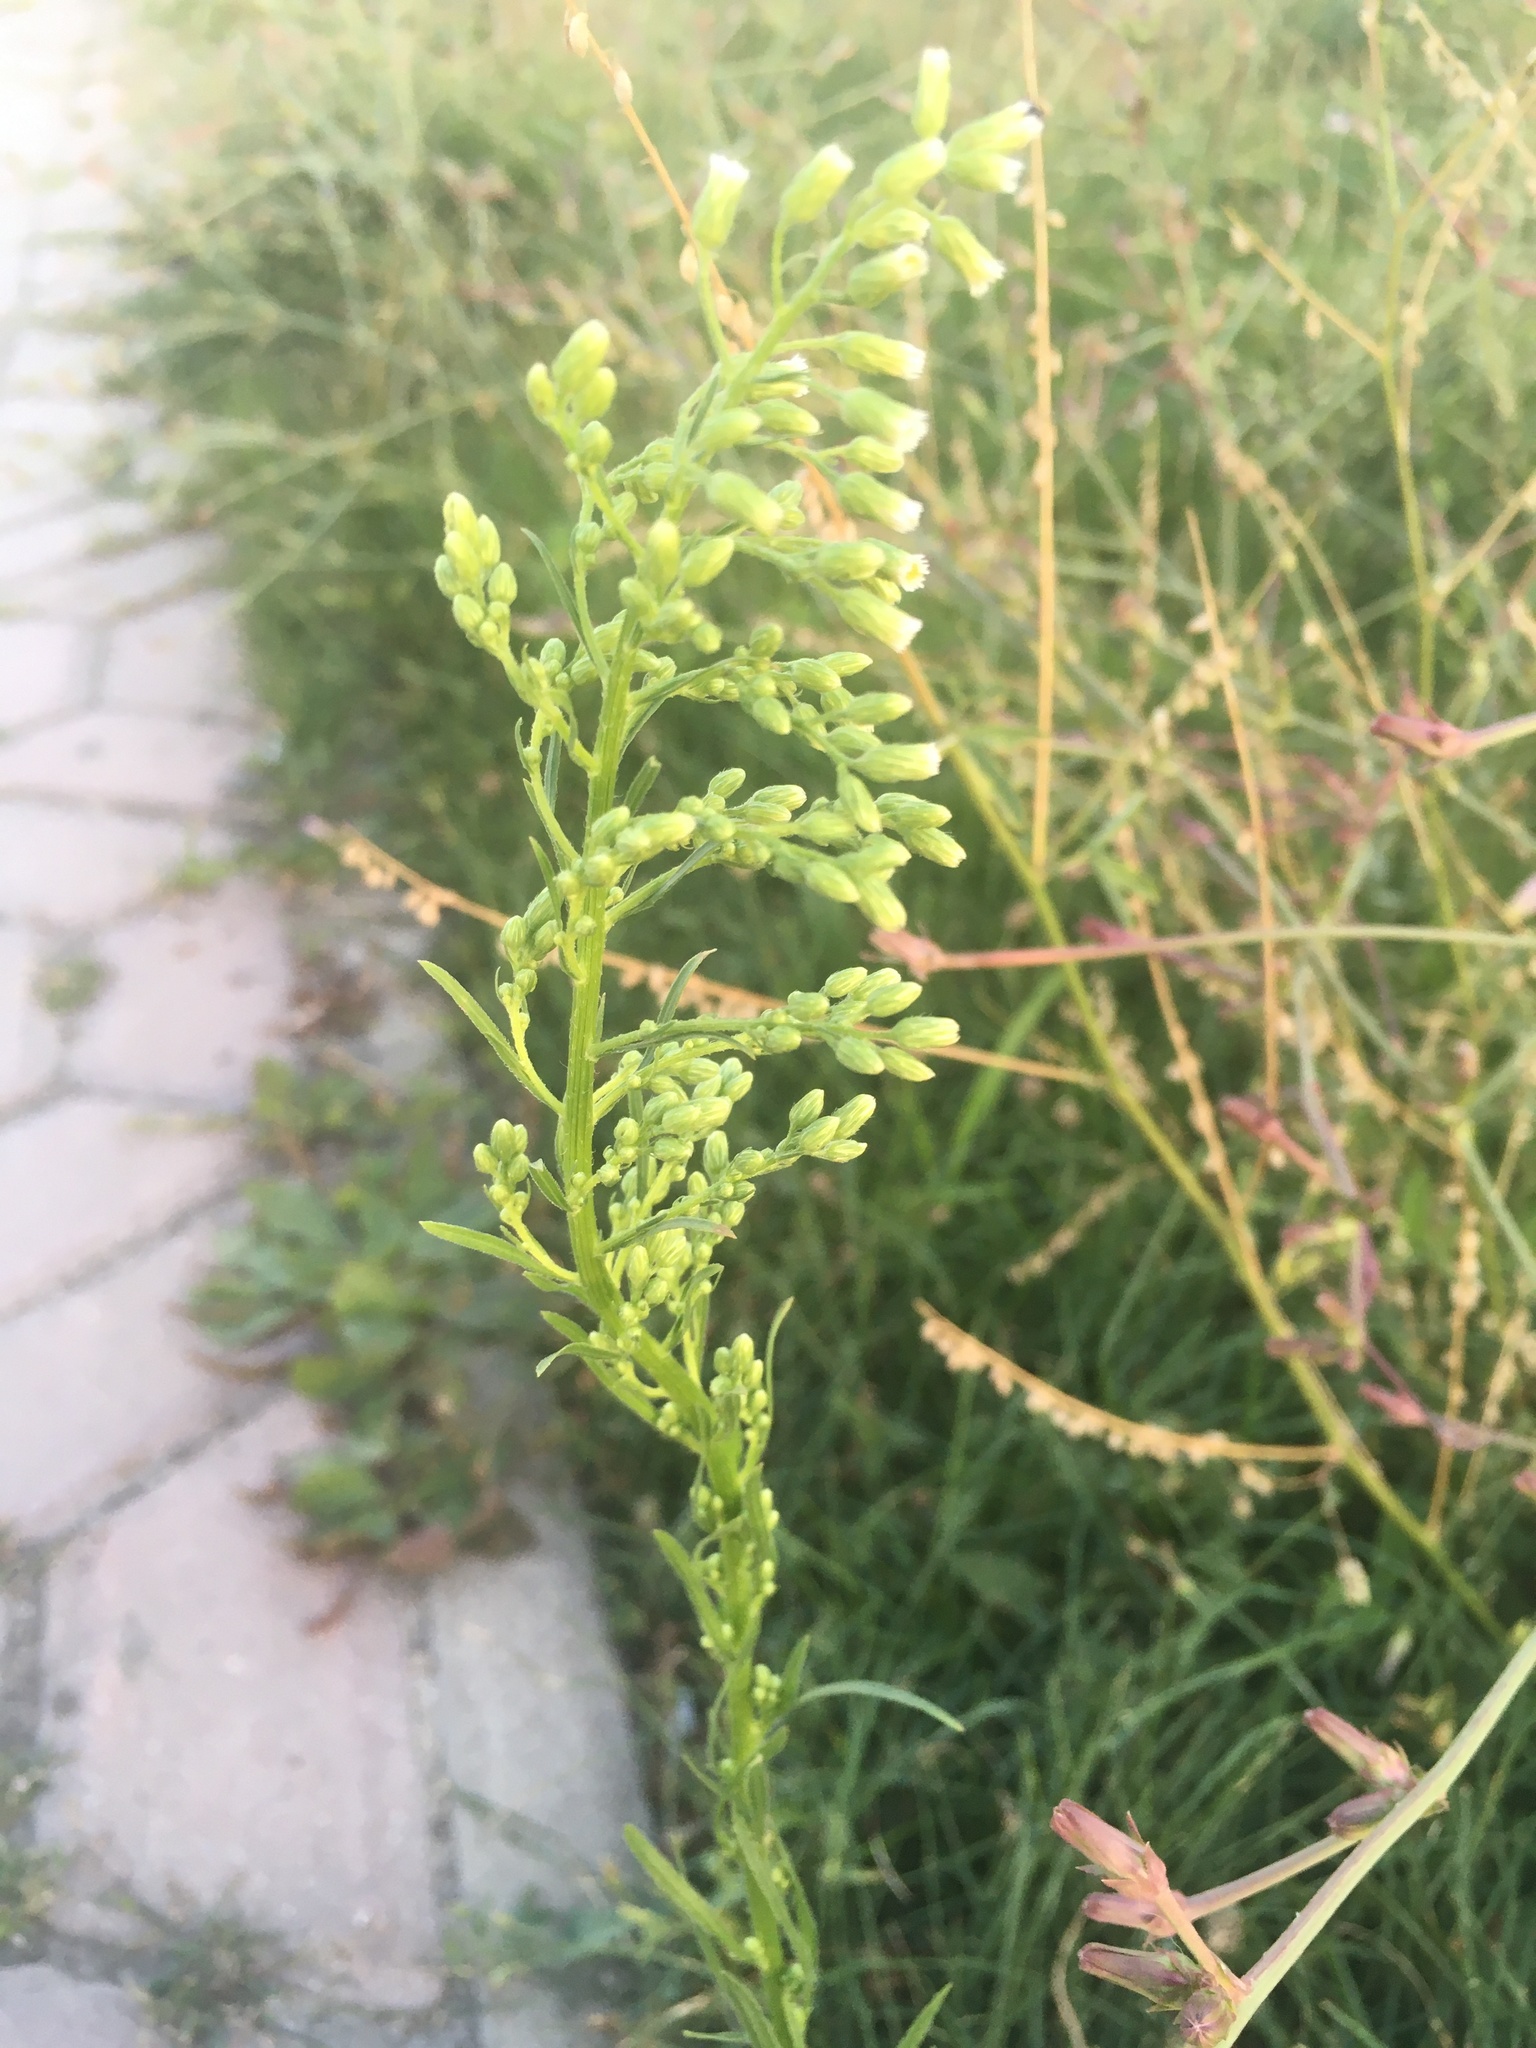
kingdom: Plantae
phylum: Tracheophyta
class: Magnoliopsida
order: Asterales
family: Asteraceae
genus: Erigeron
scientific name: Erigeron canadensis
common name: Canadian fleabane
